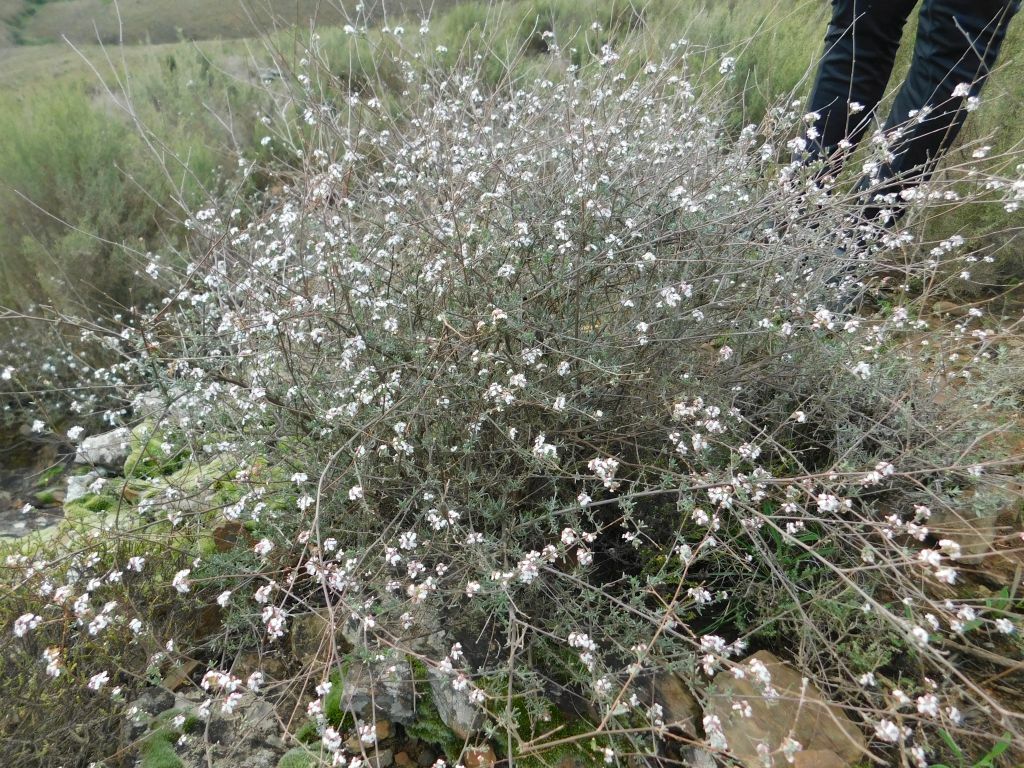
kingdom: Plantae
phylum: Tracheophyta
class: Magnoliopsida
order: Asterales
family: Asteraceae
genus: Eriocephalus
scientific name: Eriocephalus africanus
